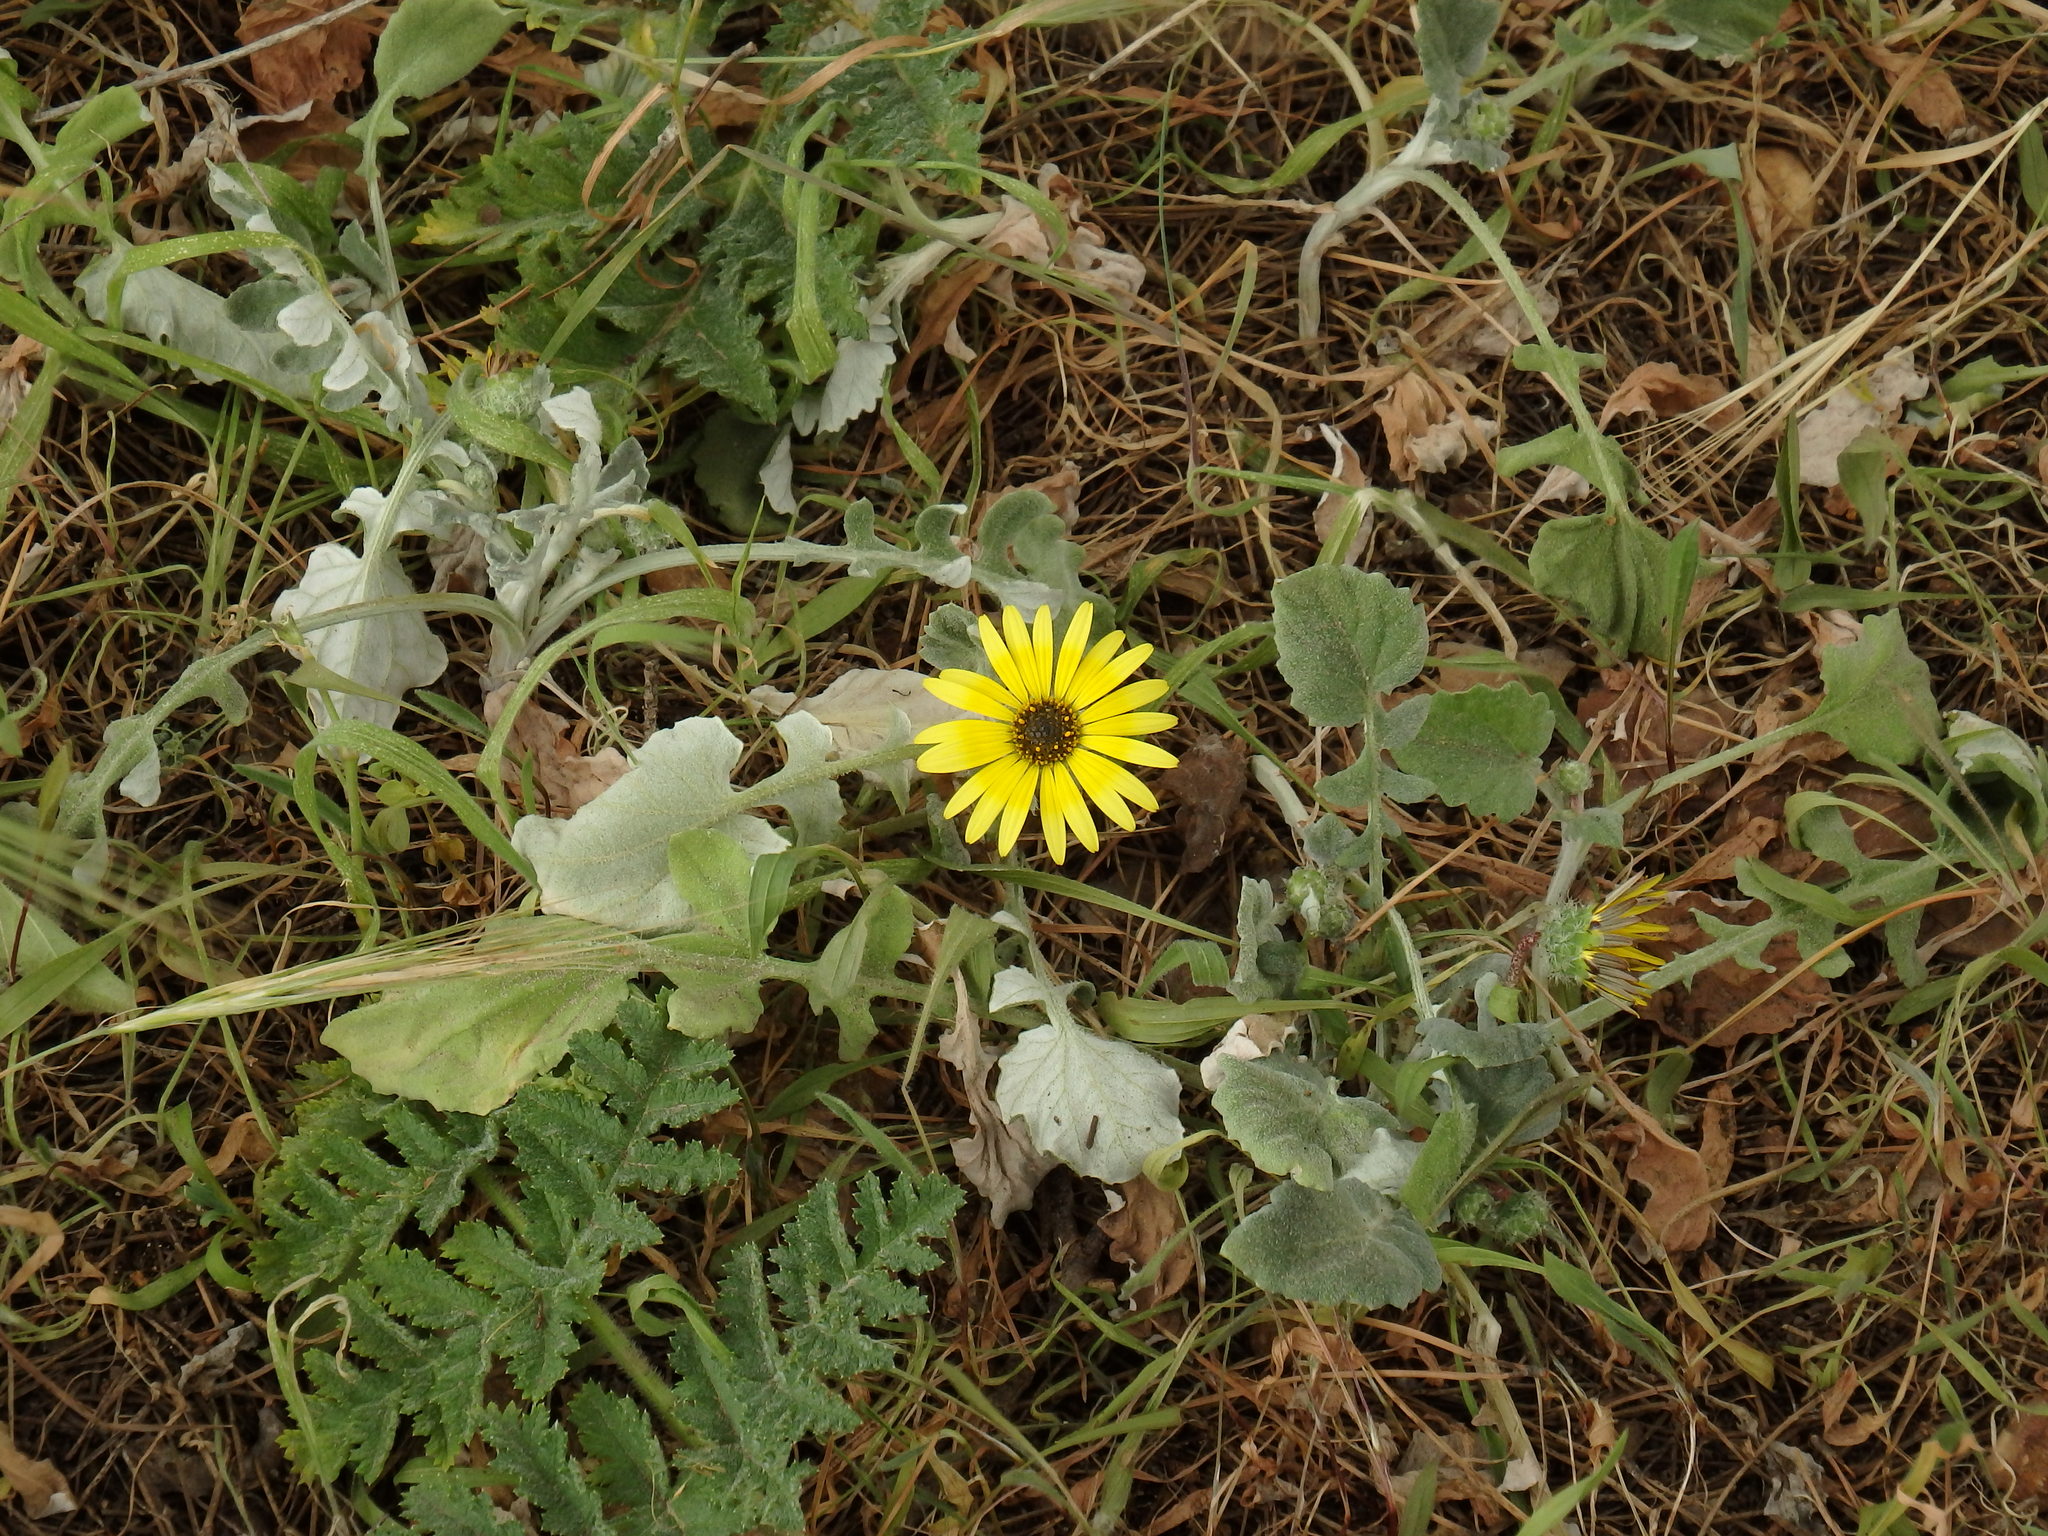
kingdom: Plantae
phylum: Tracheophyta
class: Magnoliopsida
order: Asterales
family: Asteraceae
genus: Arctotheca
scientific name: Arctotheca calendula
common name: Capeweed
